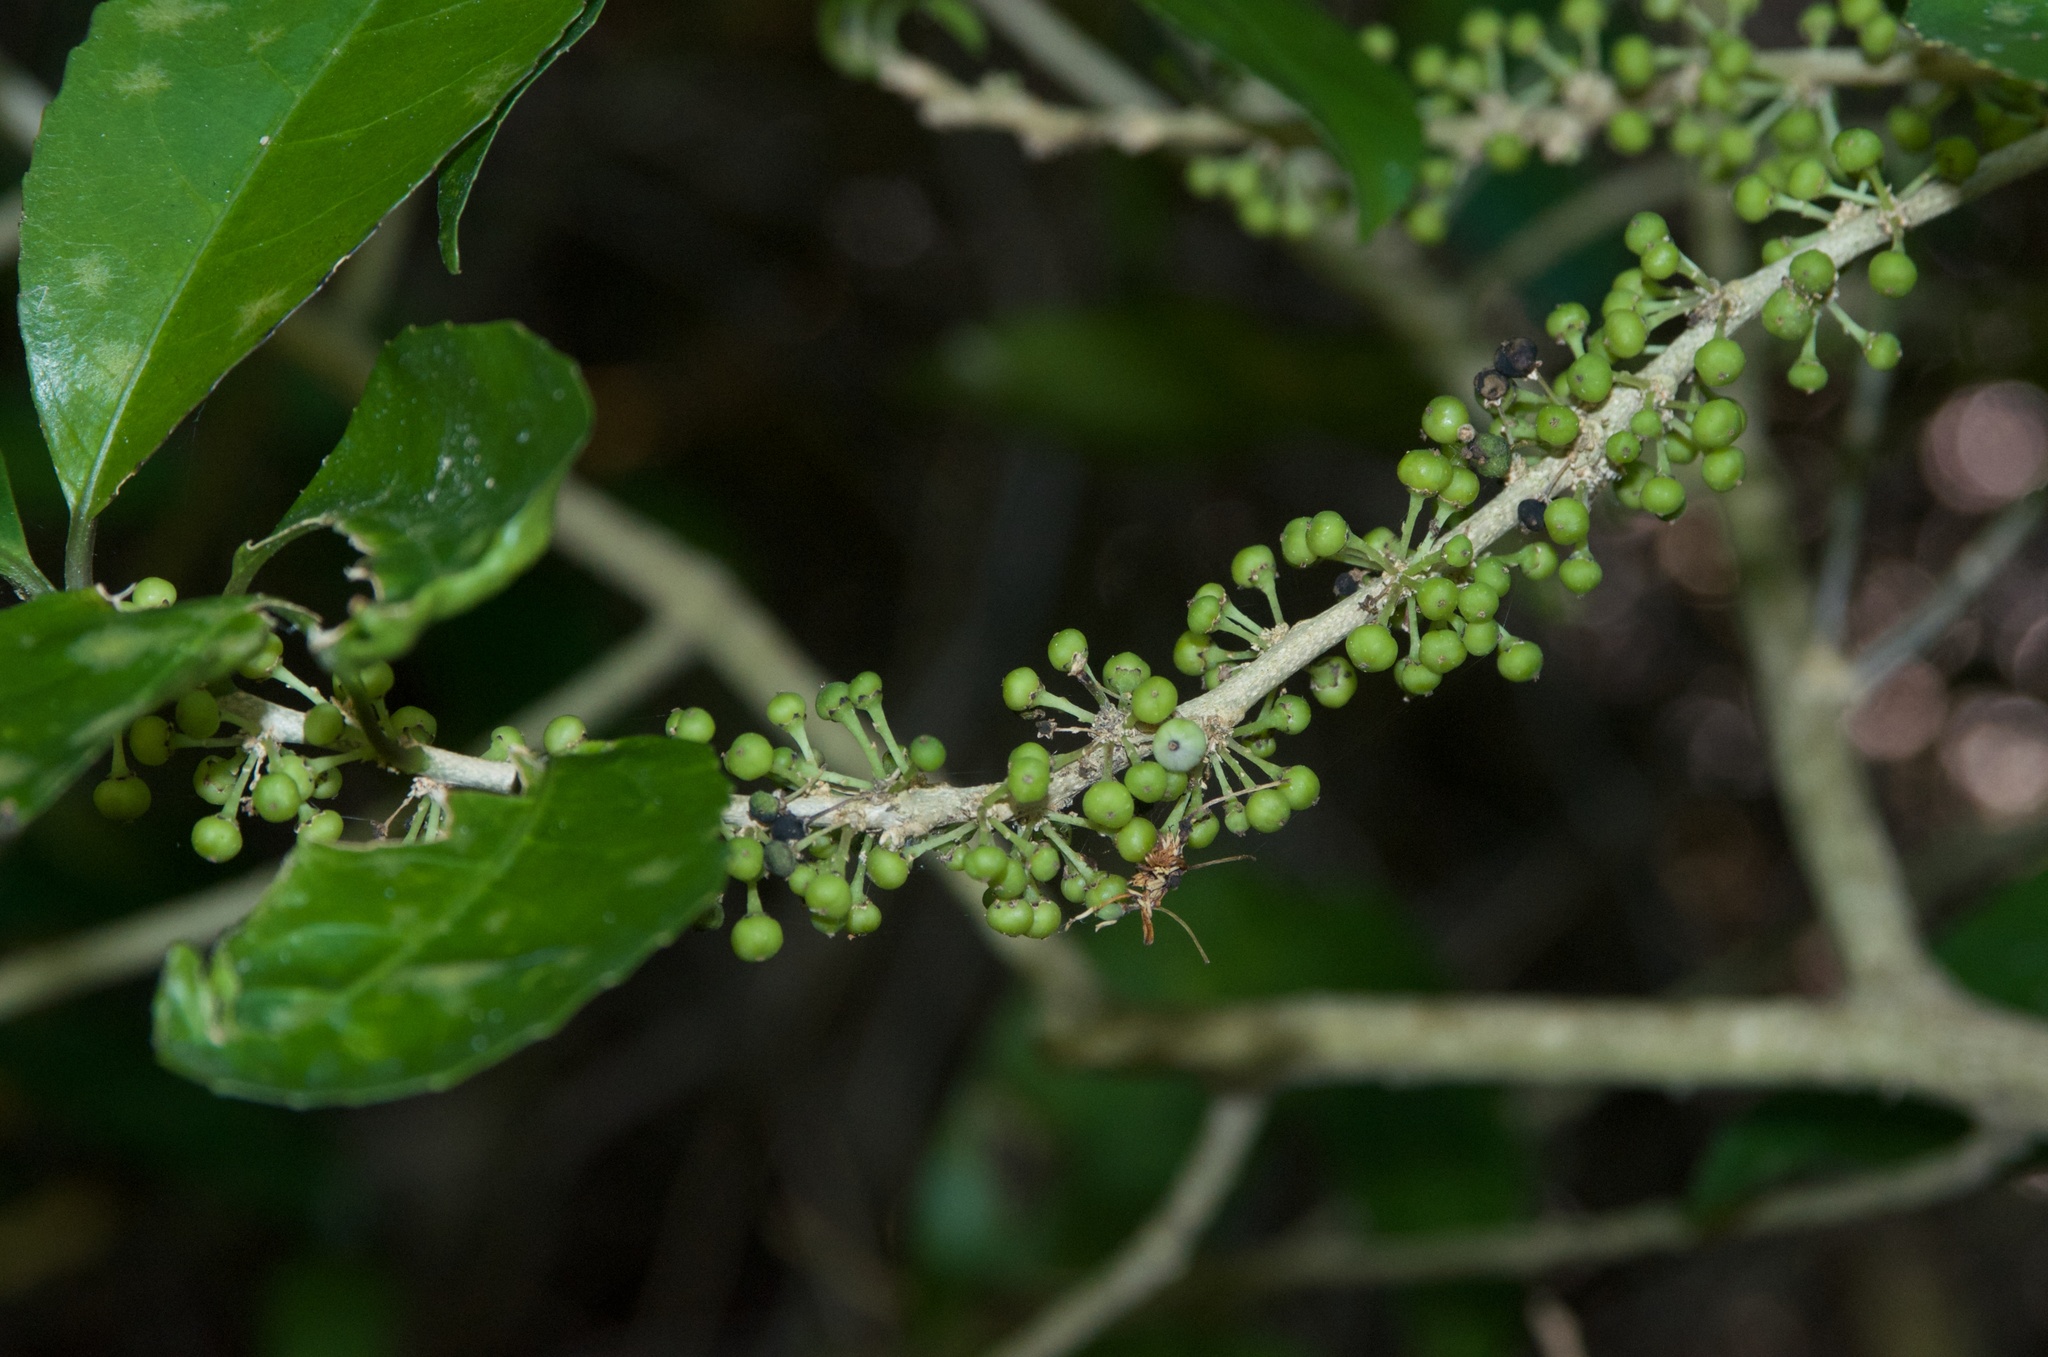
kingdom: Plantae
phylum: Tracheophyta
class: Magnoliopsida
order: Malpighiales
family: Violaceae
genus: Melicytus
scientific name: Melicytus ramiflorus
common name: Mahoe
